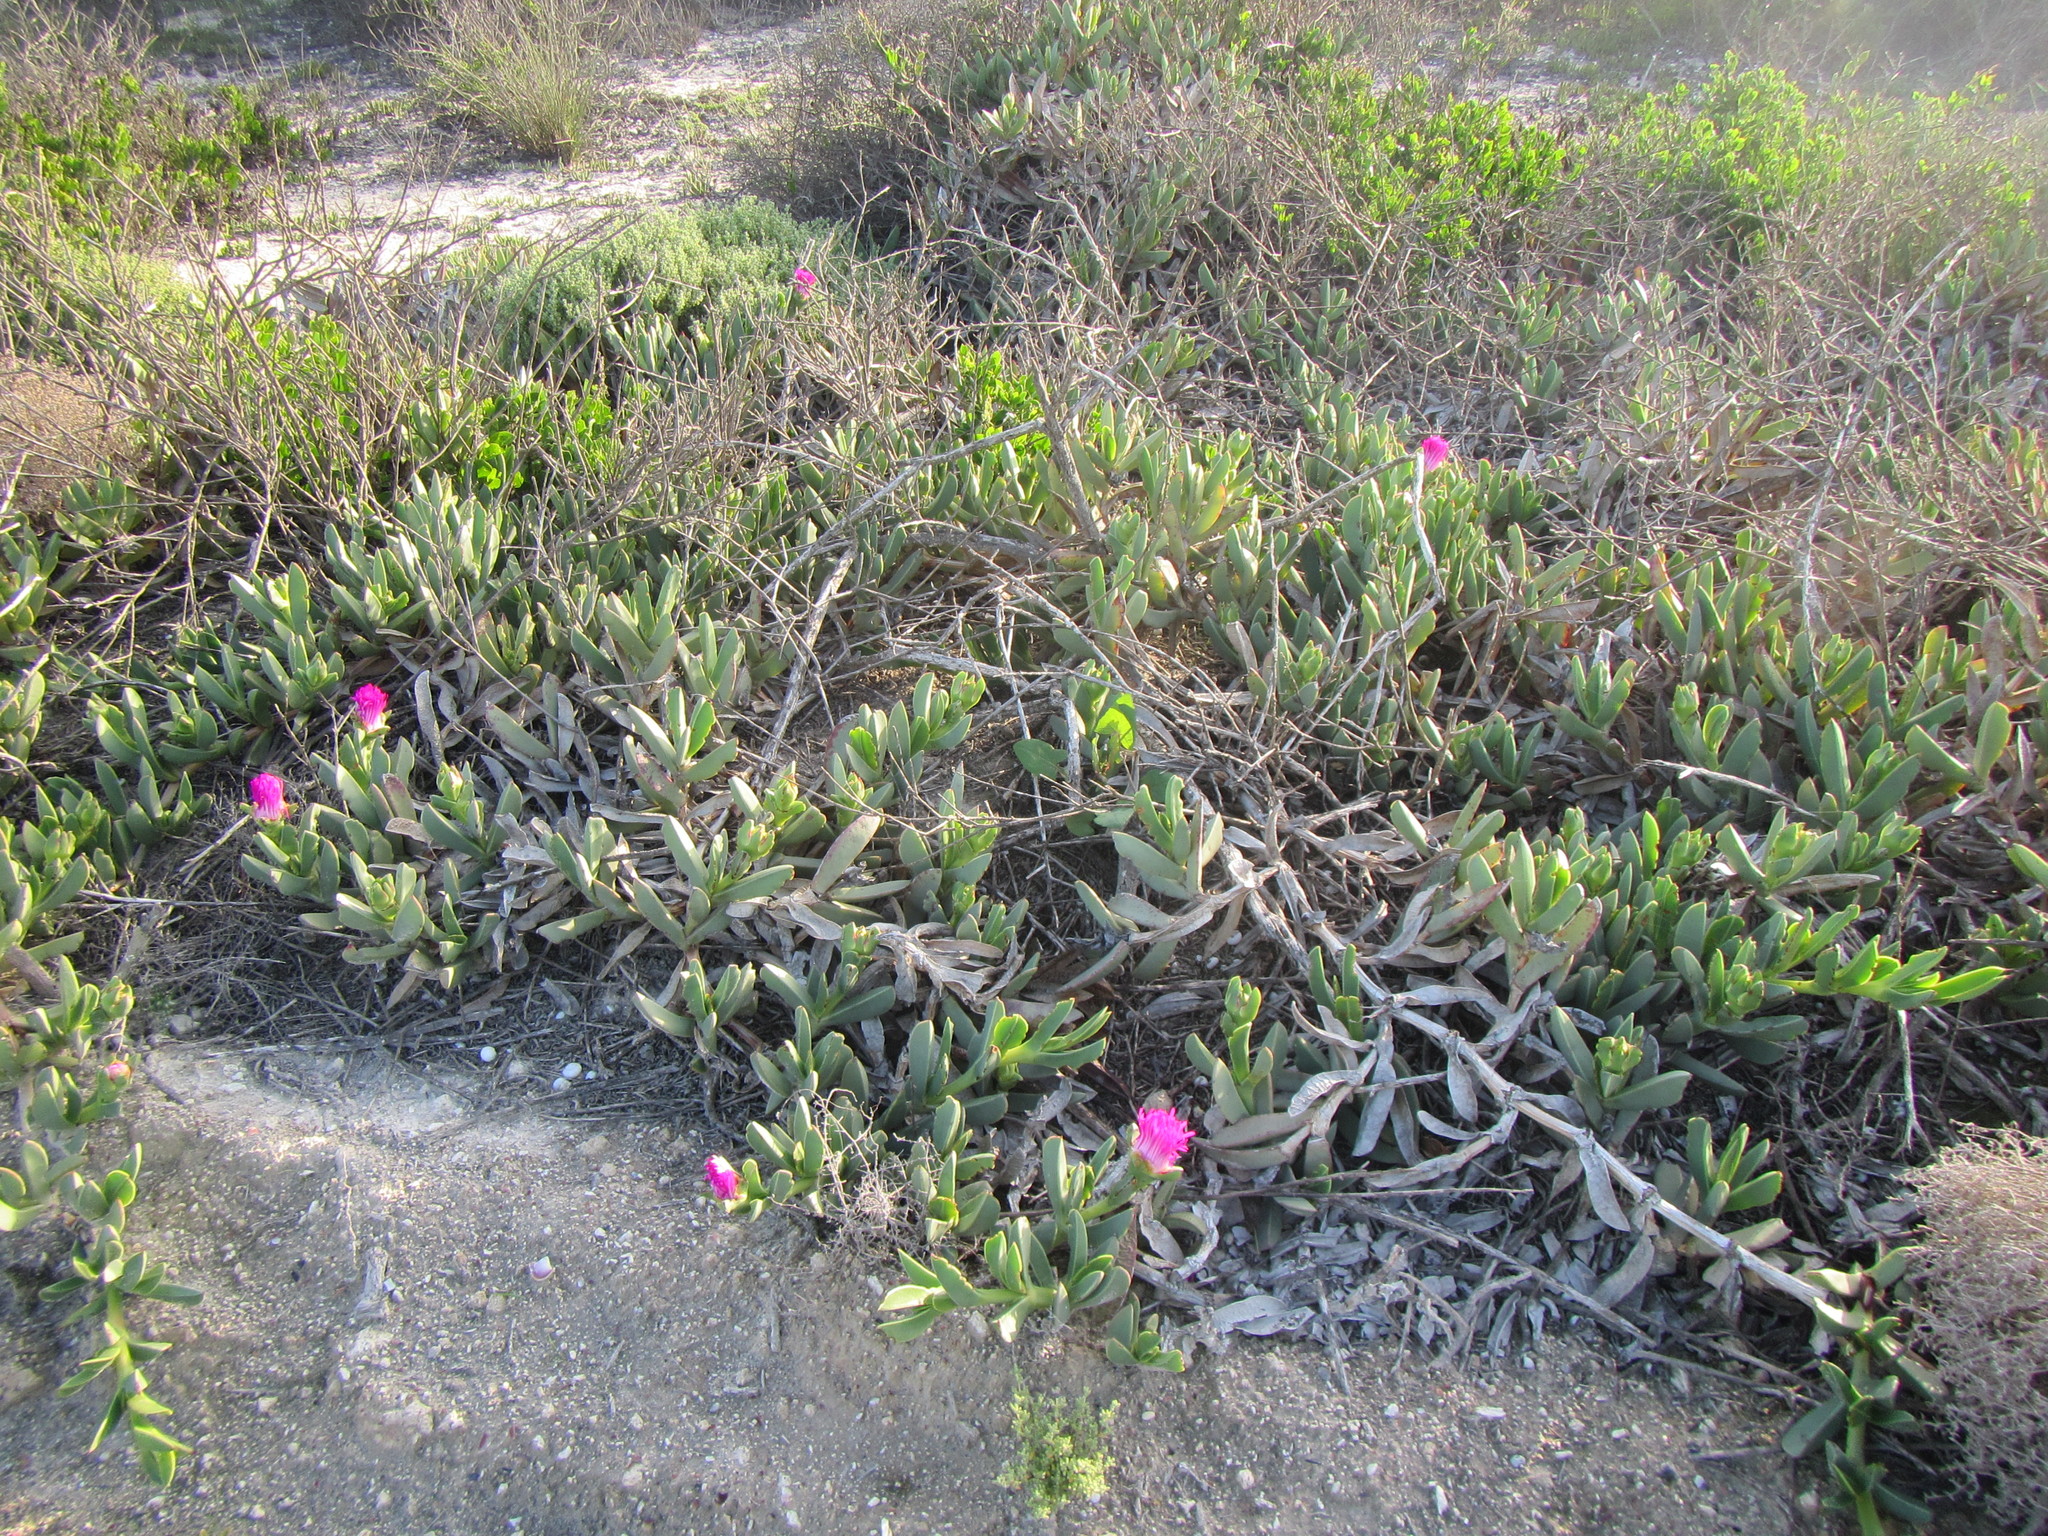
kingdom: Plantae
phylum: Tracheophyta
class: Magnoliopsida
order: Caryophyllales
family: Aizoaceae
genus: Carpobrotus
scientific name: Carpobrotus quadrifidus
